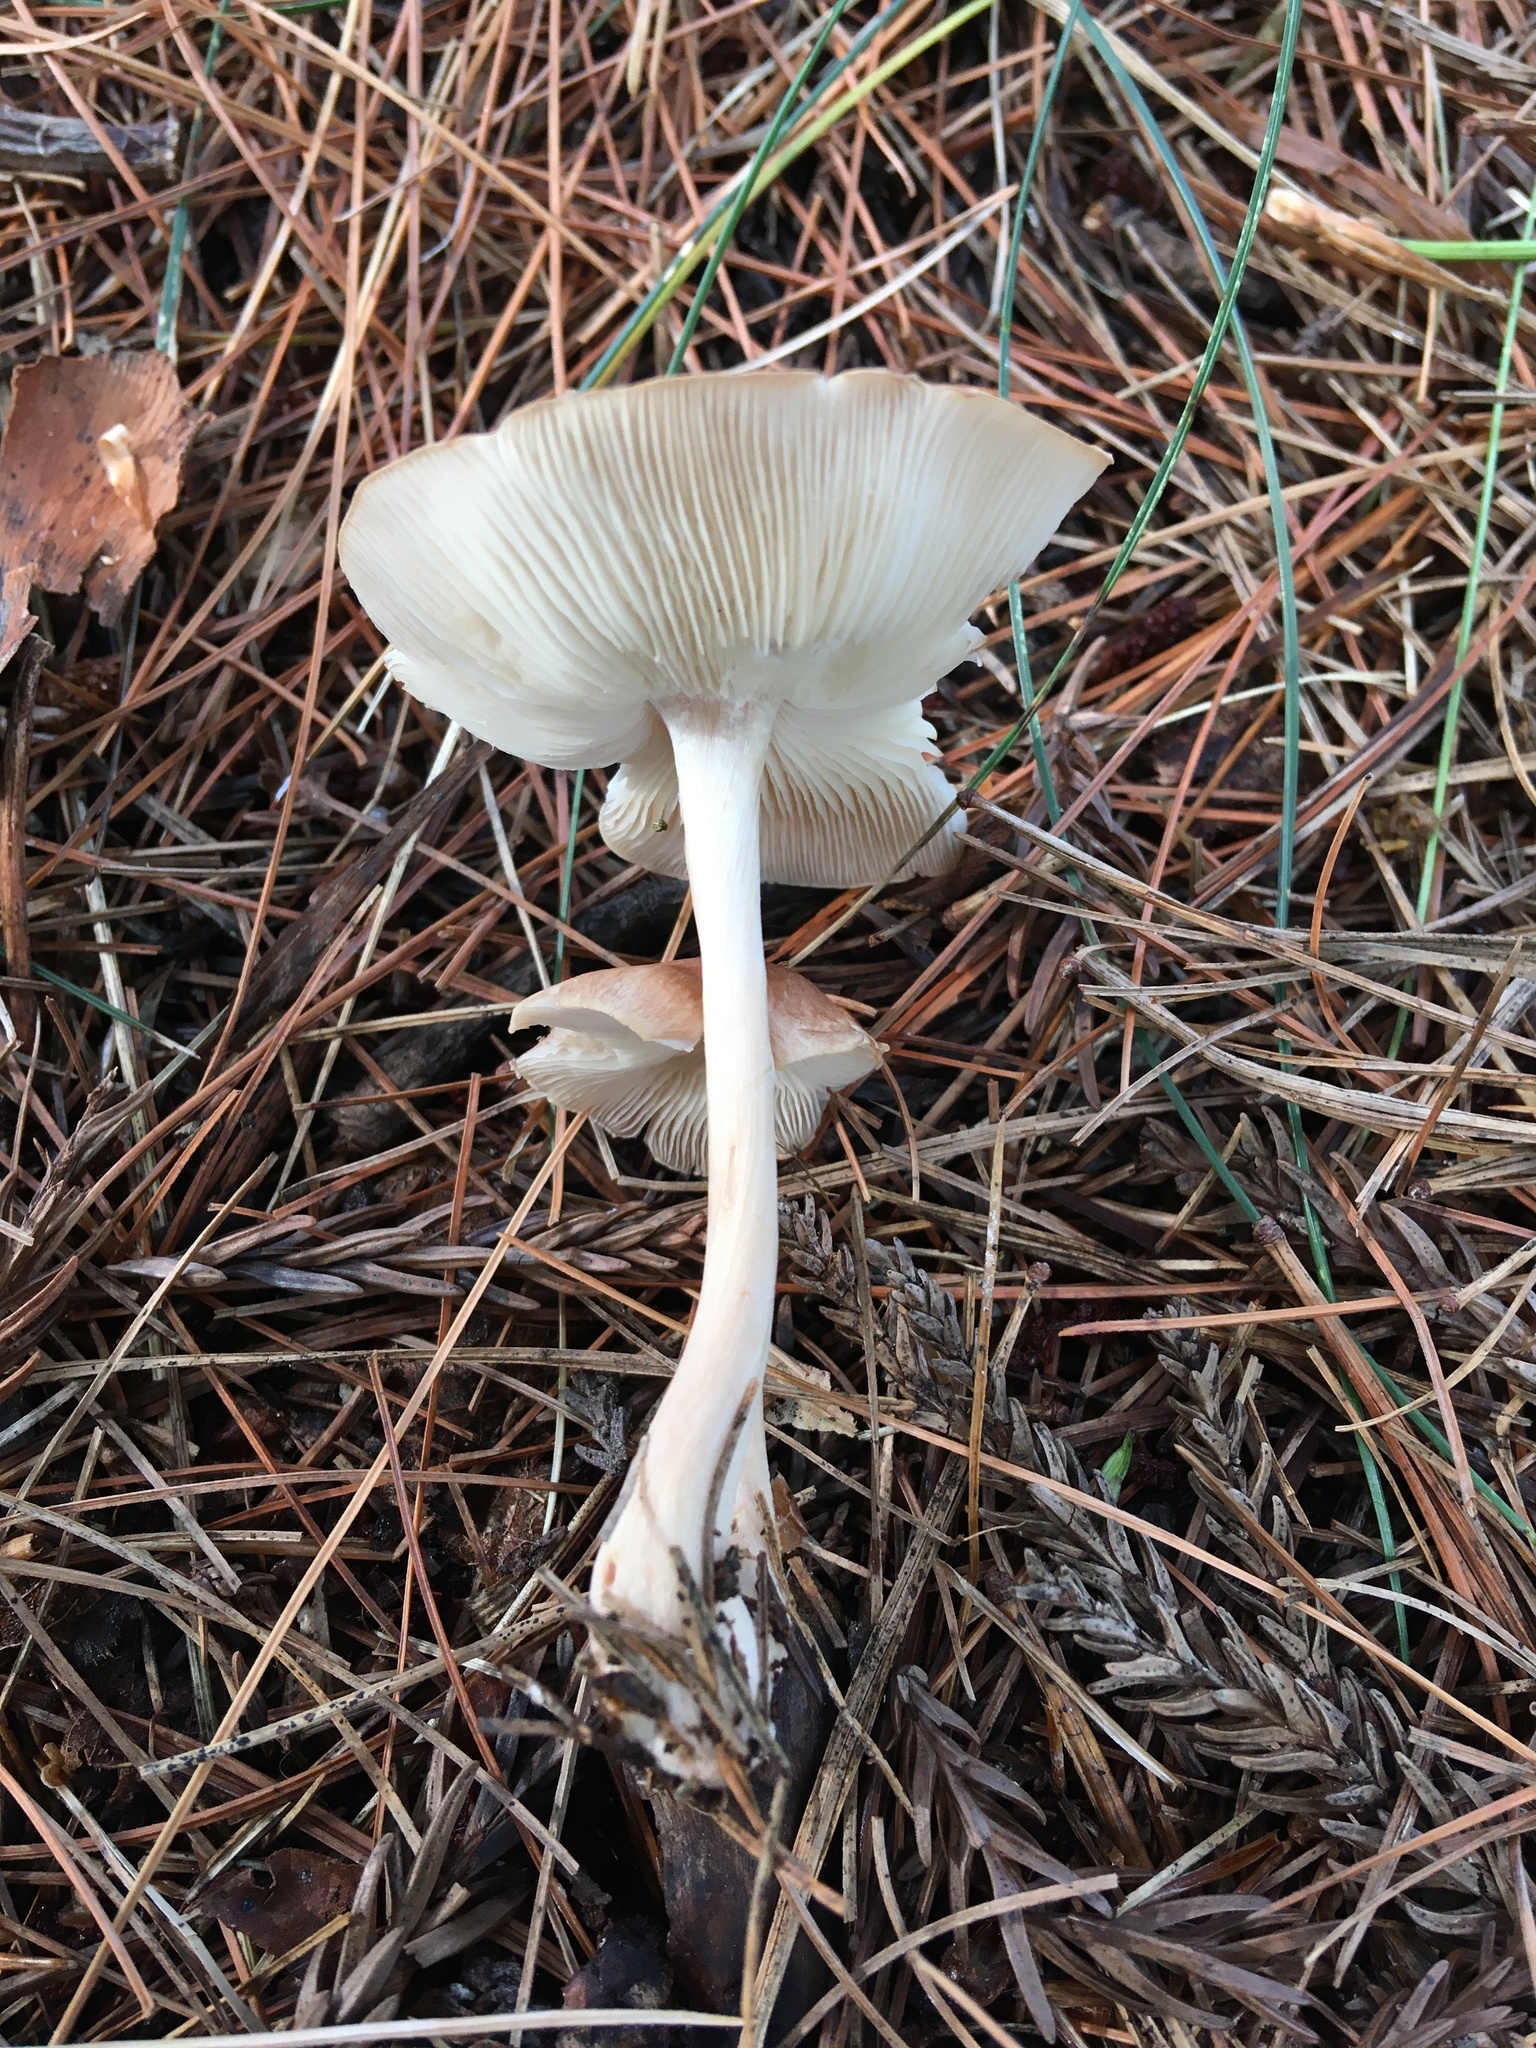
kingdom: Fungi
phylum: Basidiomycota
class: Agaricomycetes
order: Agaricales
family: Omphalotaceae
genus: Collybiopsis
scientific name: Collybiopsis luxurians
